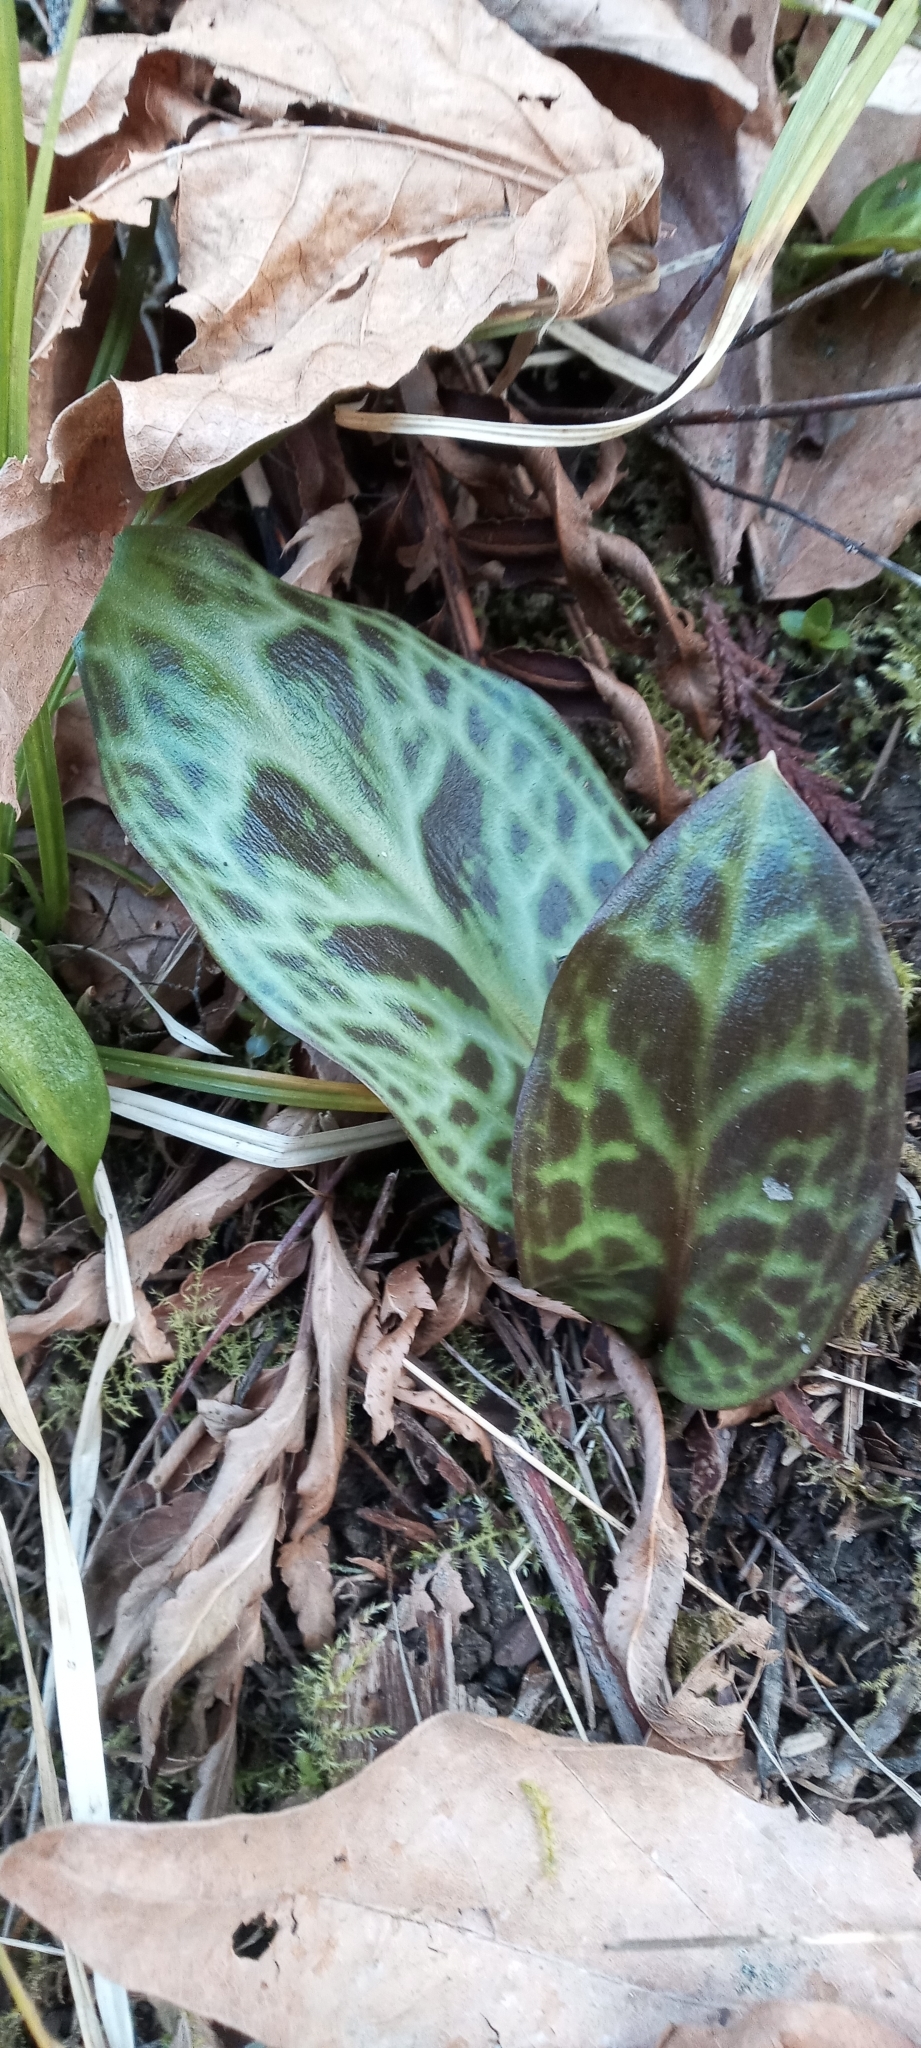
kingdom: Plantae
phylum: Tracheophyta
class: Liliopsida
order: Liliales
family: Liliaceae
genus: Erythronium
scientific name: Erythronium oregonum
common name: Giant adder's-tongue
